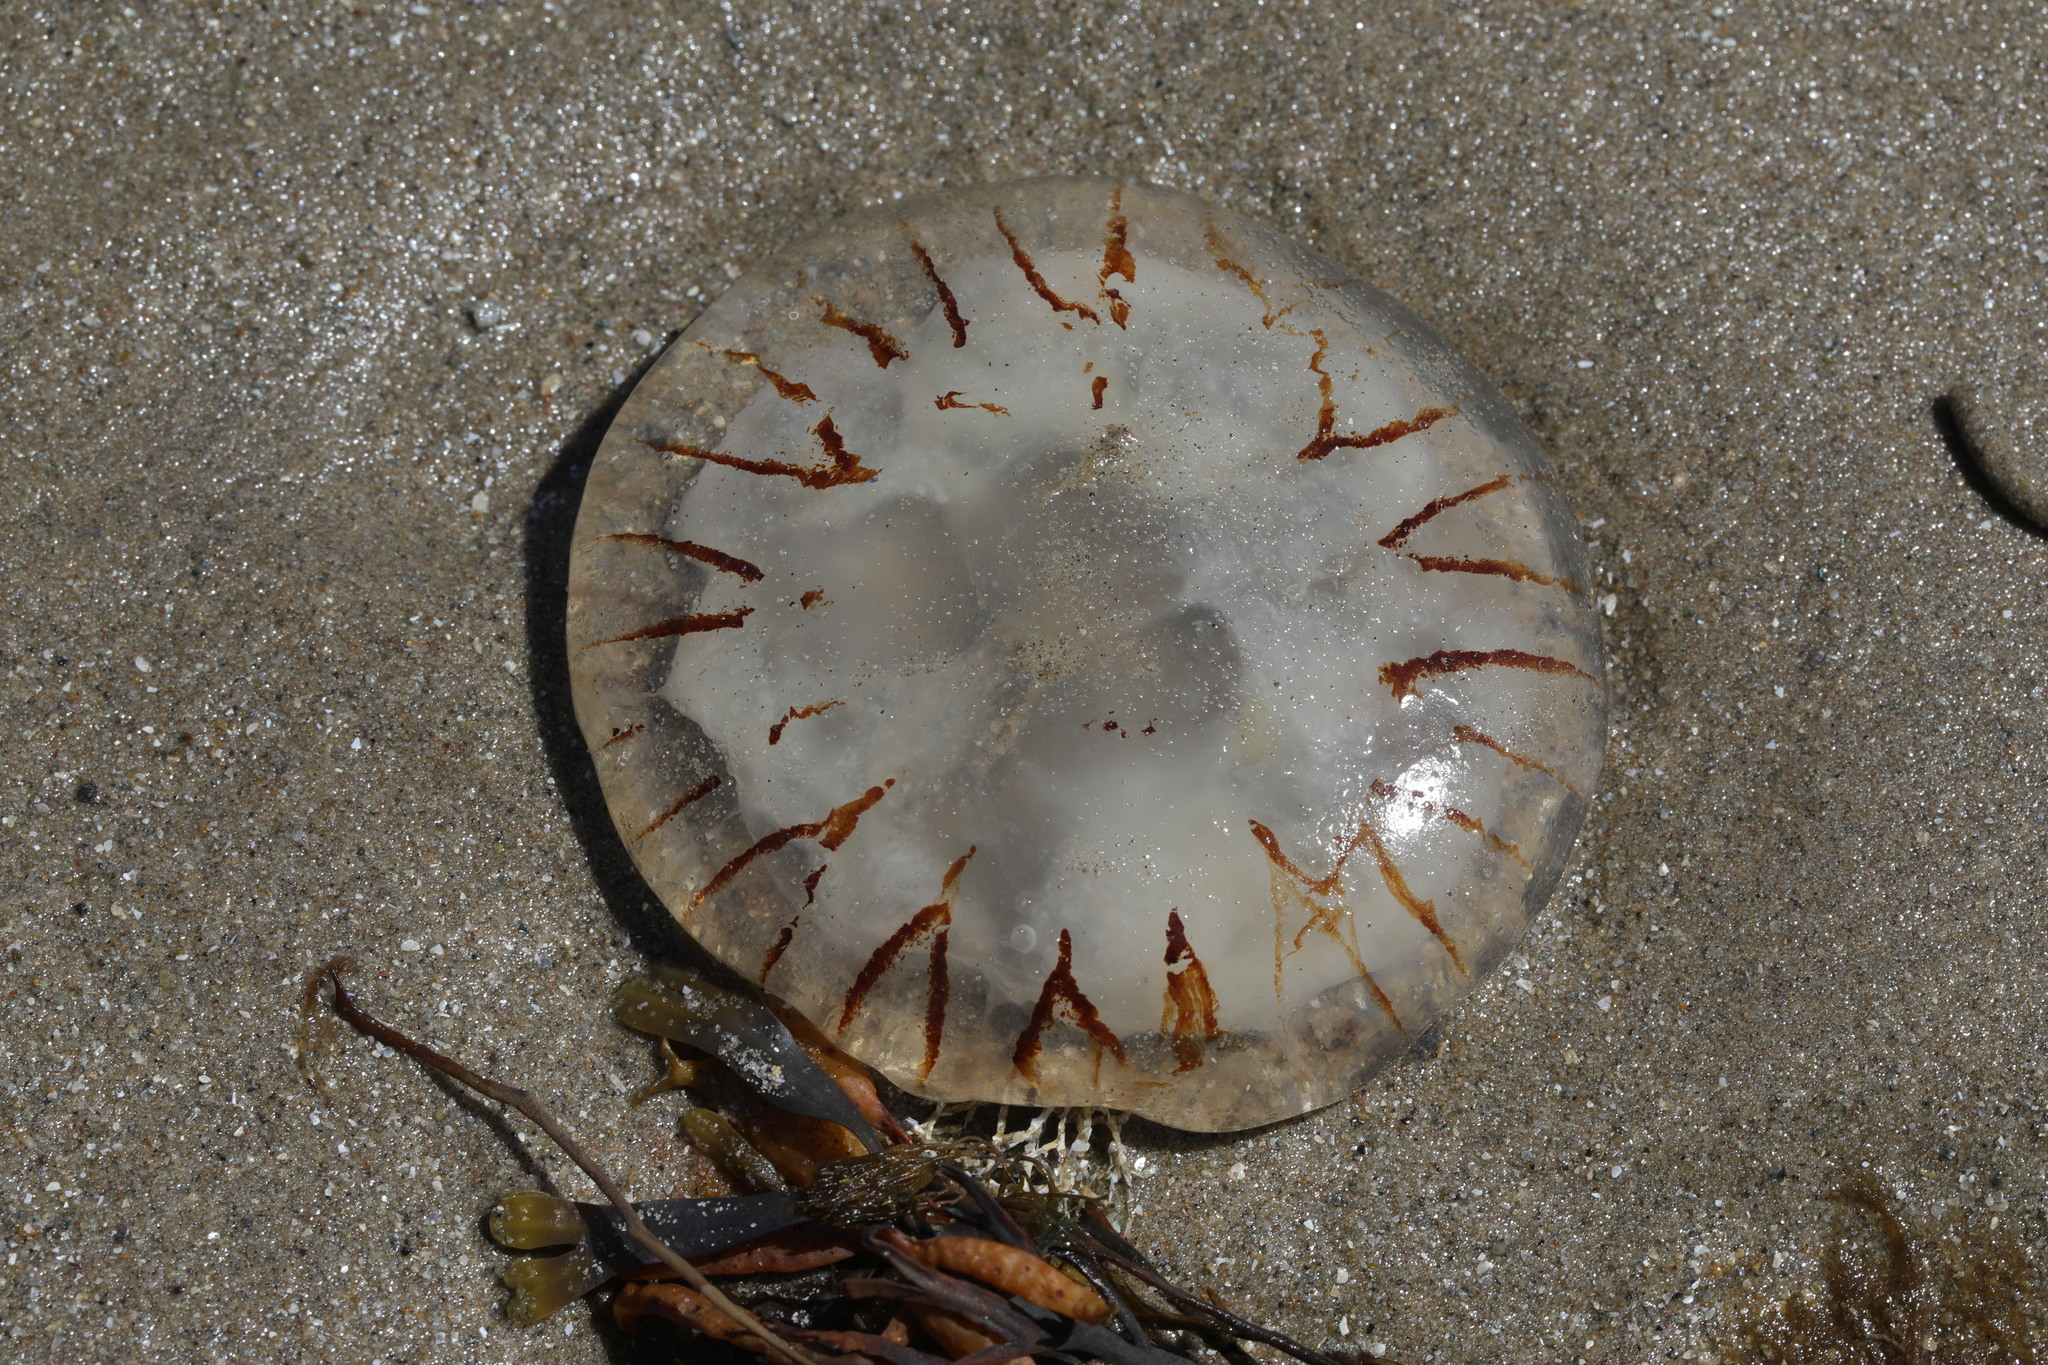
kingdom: Animalia
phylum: Cnidaria
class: Scyphozoa
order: Semaeostomeae
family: Pelagiidae
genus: Chrysaora
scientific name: Chrysaora hysoscella
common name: Compass jellyfish
